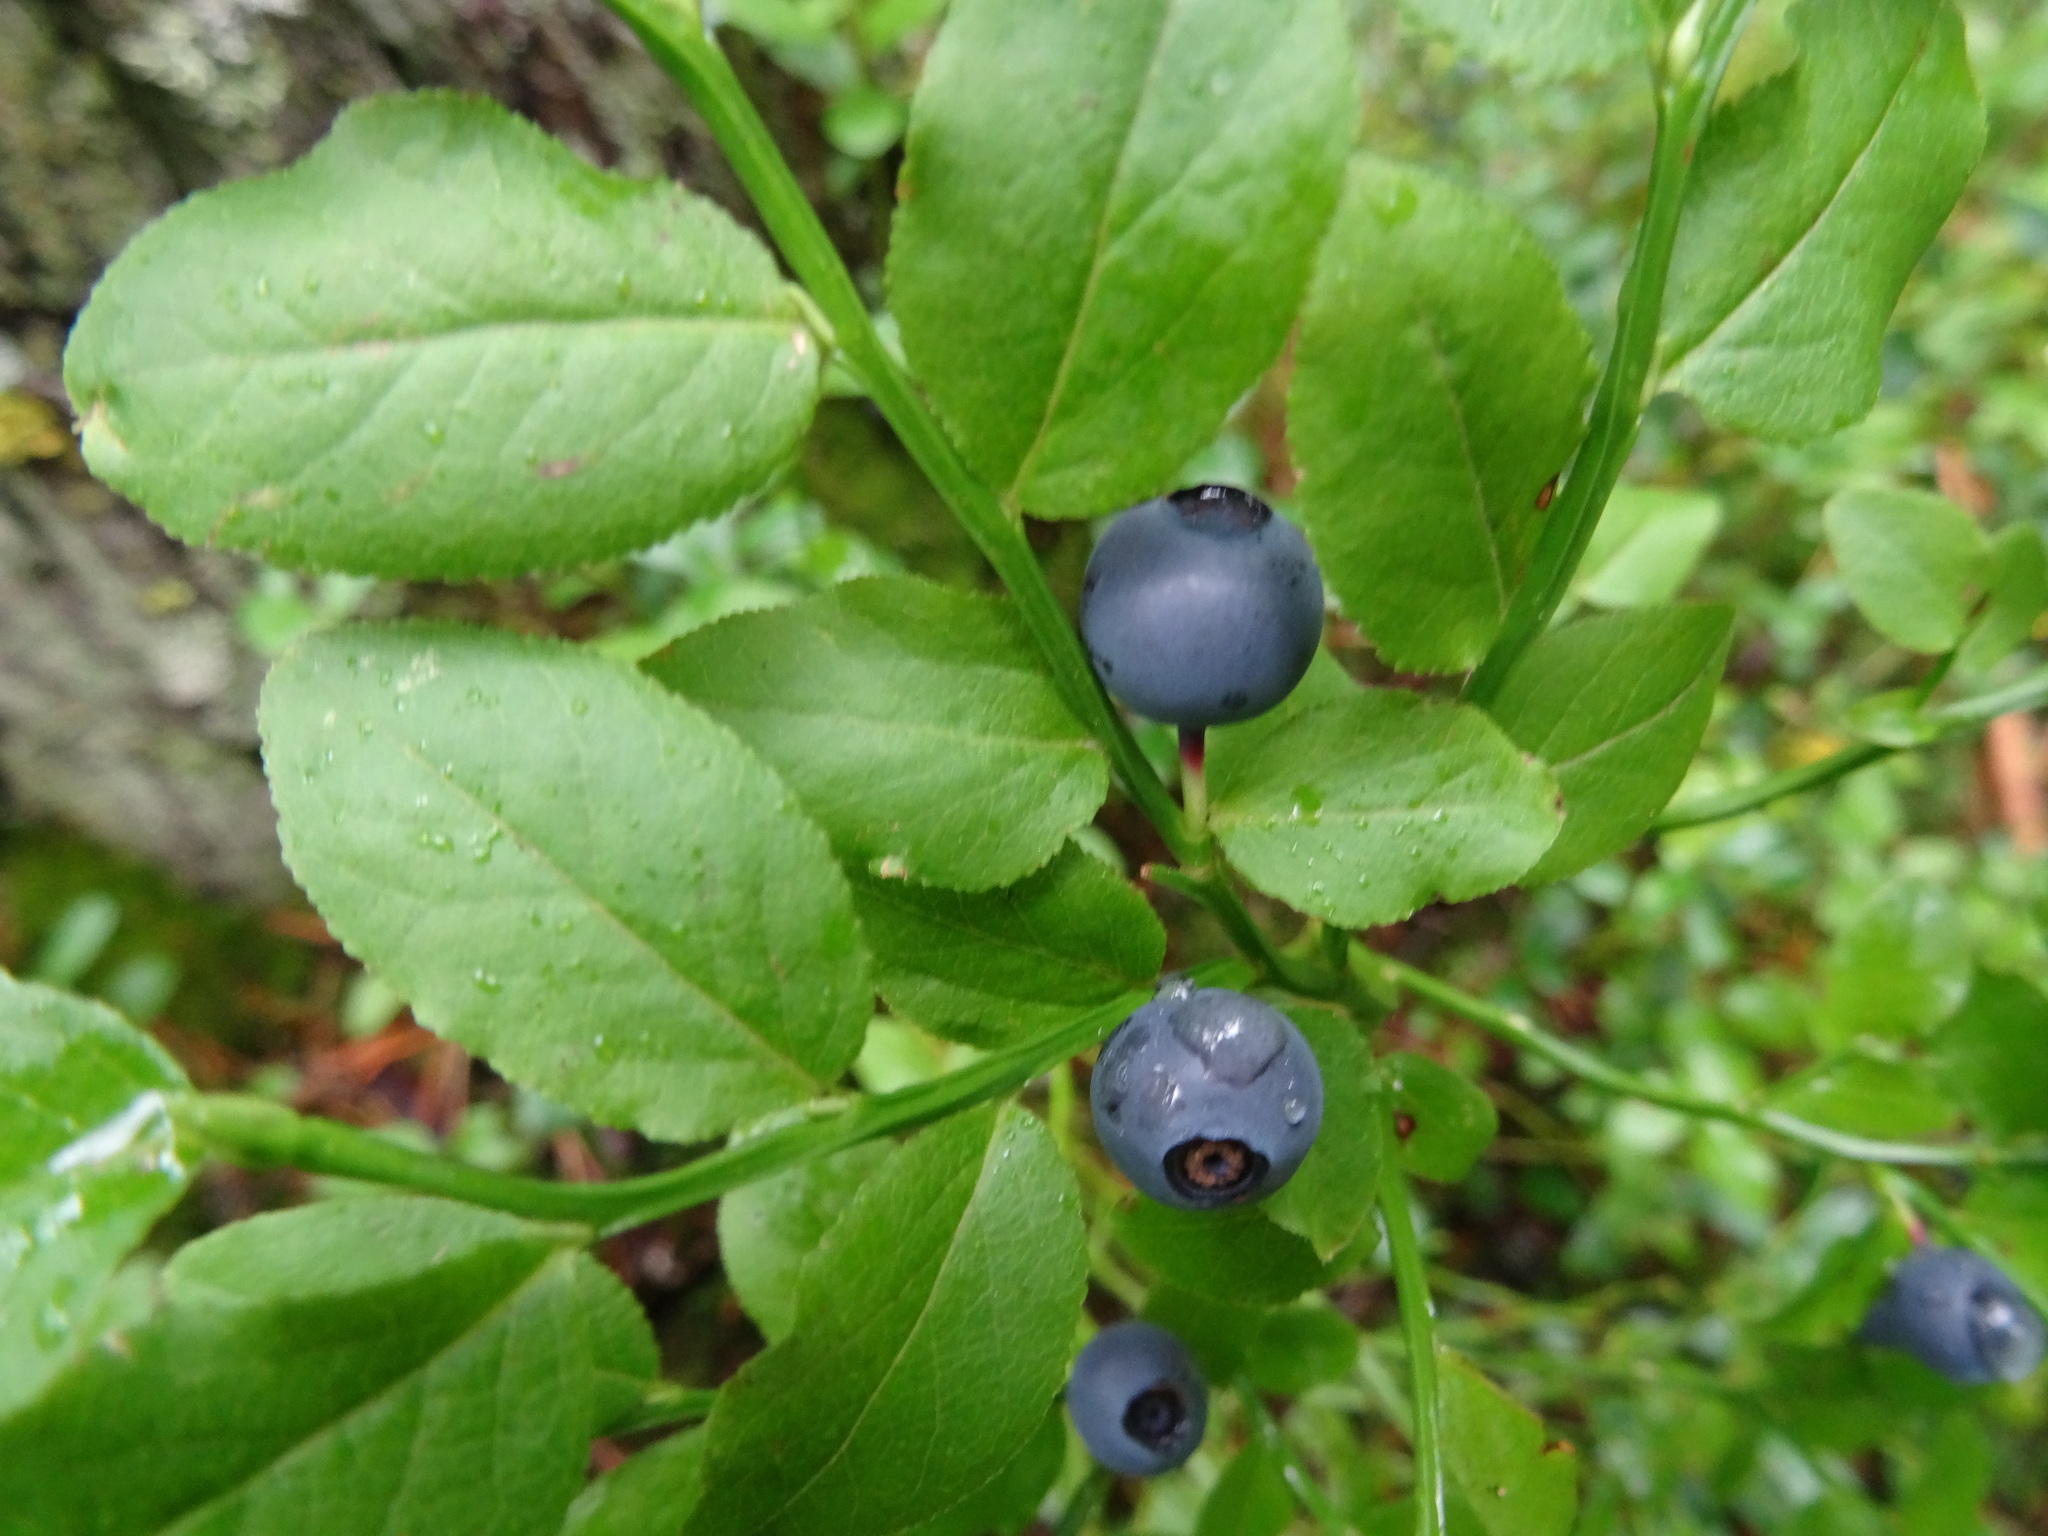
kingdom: Plantae
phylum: Tracheophyta
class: Magnoliopsida
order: Ericales
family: Ericaceae
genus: Vaccinium
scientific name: Vaccinium myrtillus
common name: Bilberry
